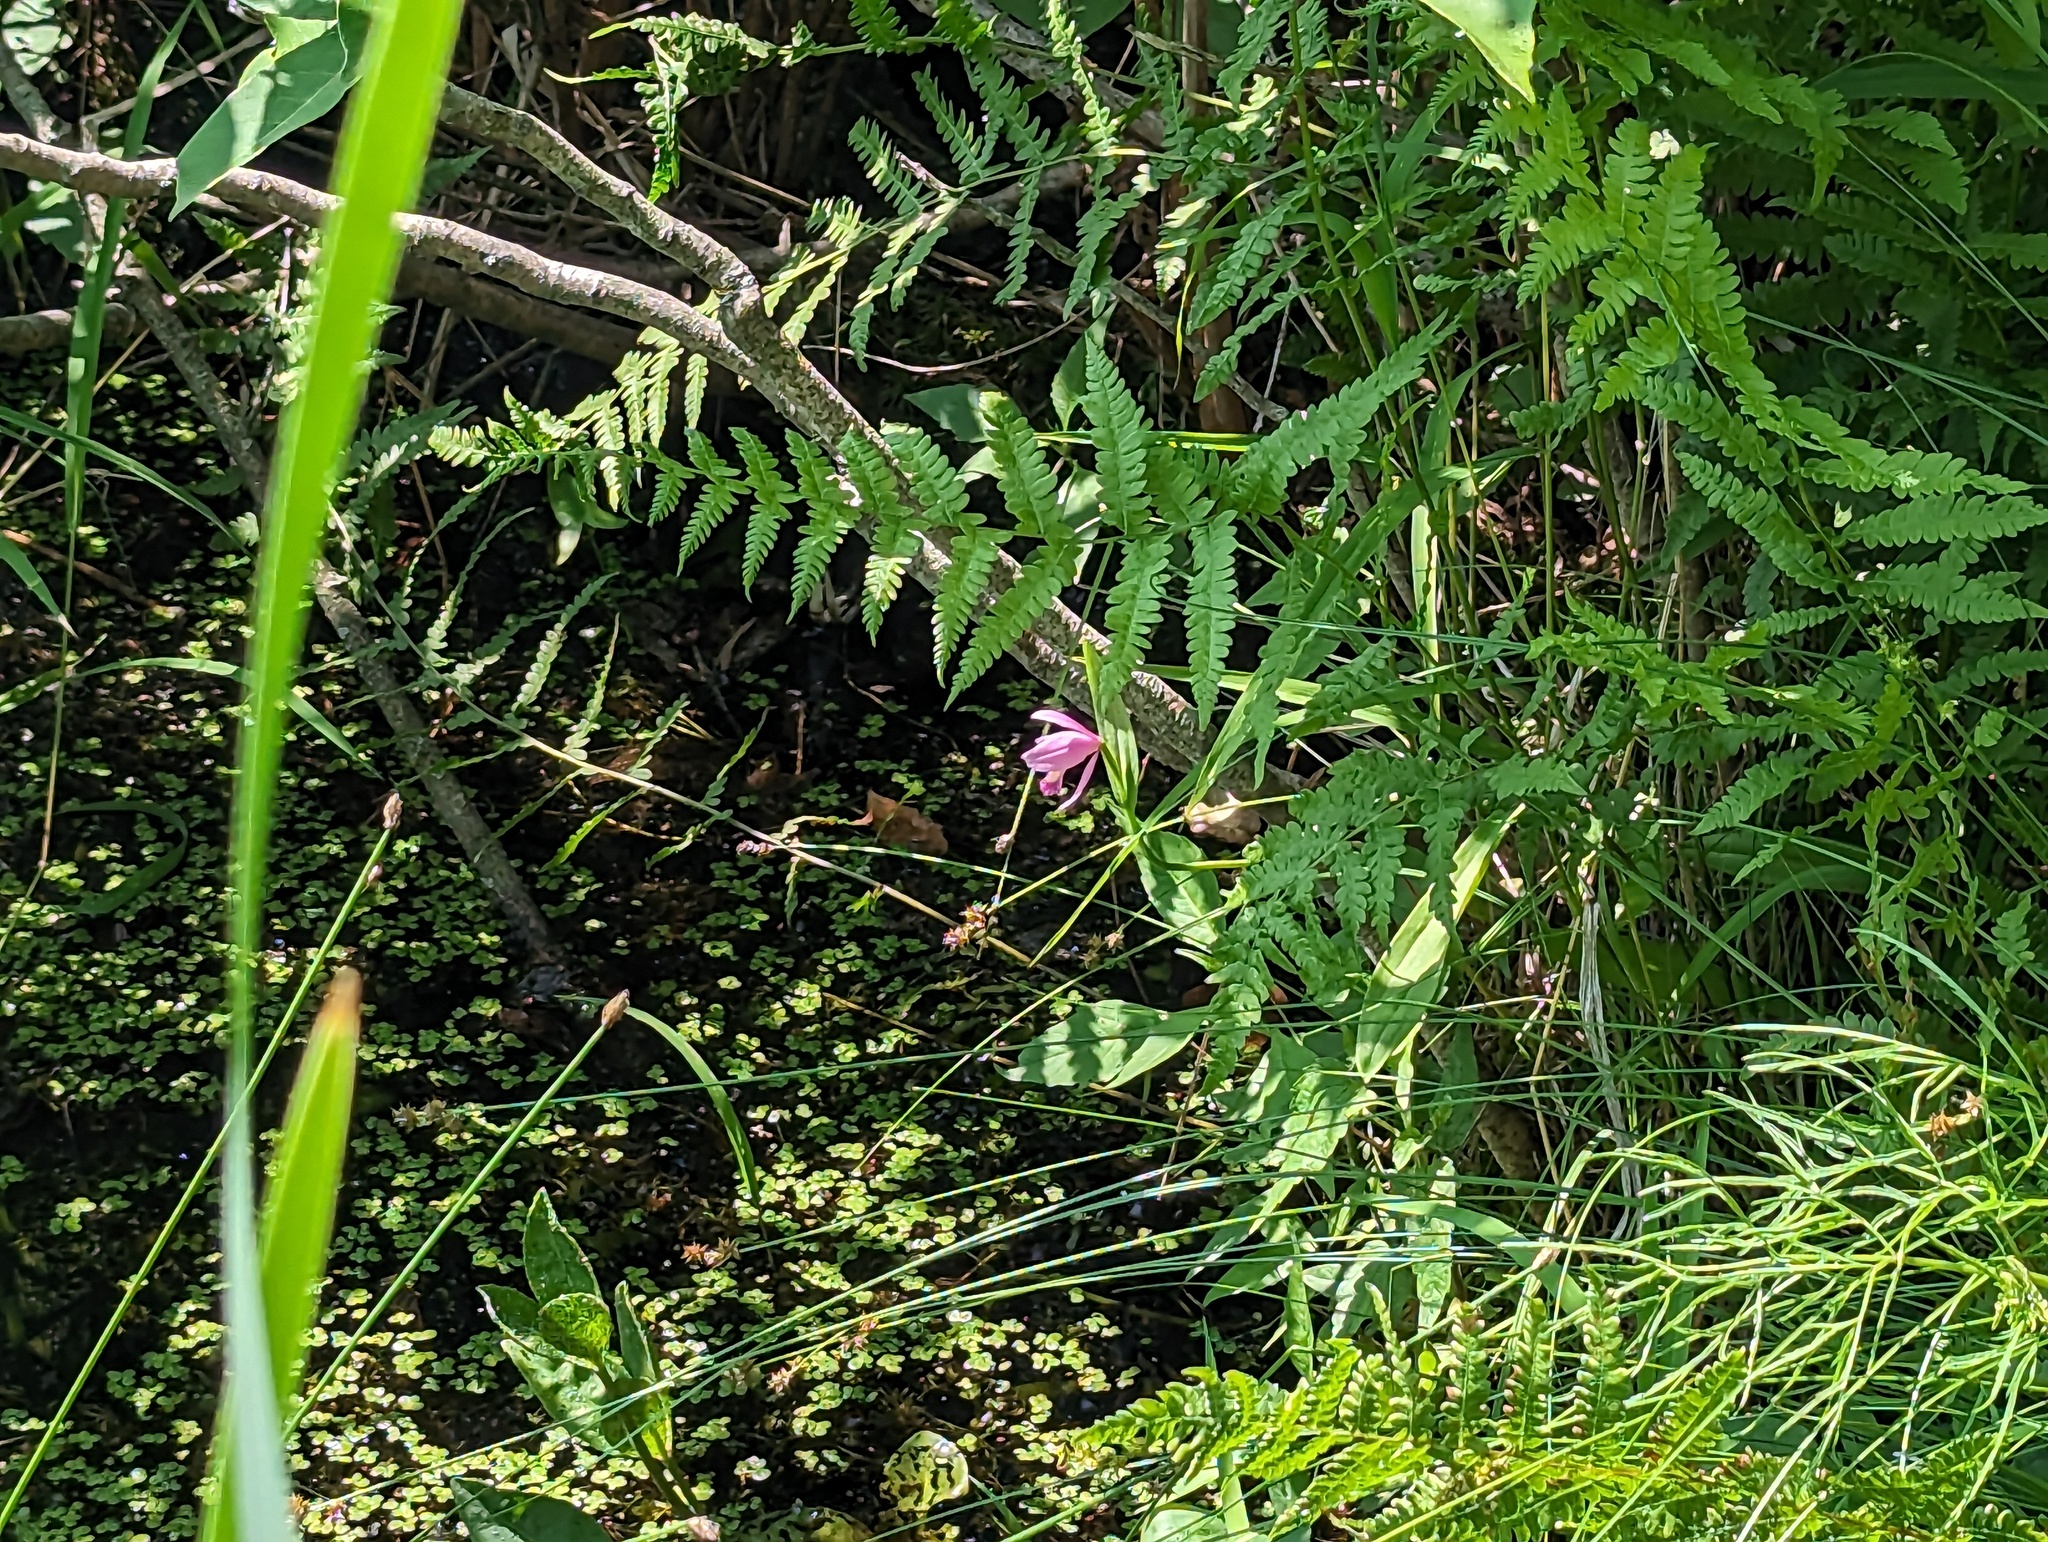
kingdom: Plantae
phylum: Tracheophyta
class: Liliopsida
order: Asparagales
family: Orchidaceae
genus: Pogonia
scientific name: Pogonia ophioglossoides
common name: Rose pogonia
